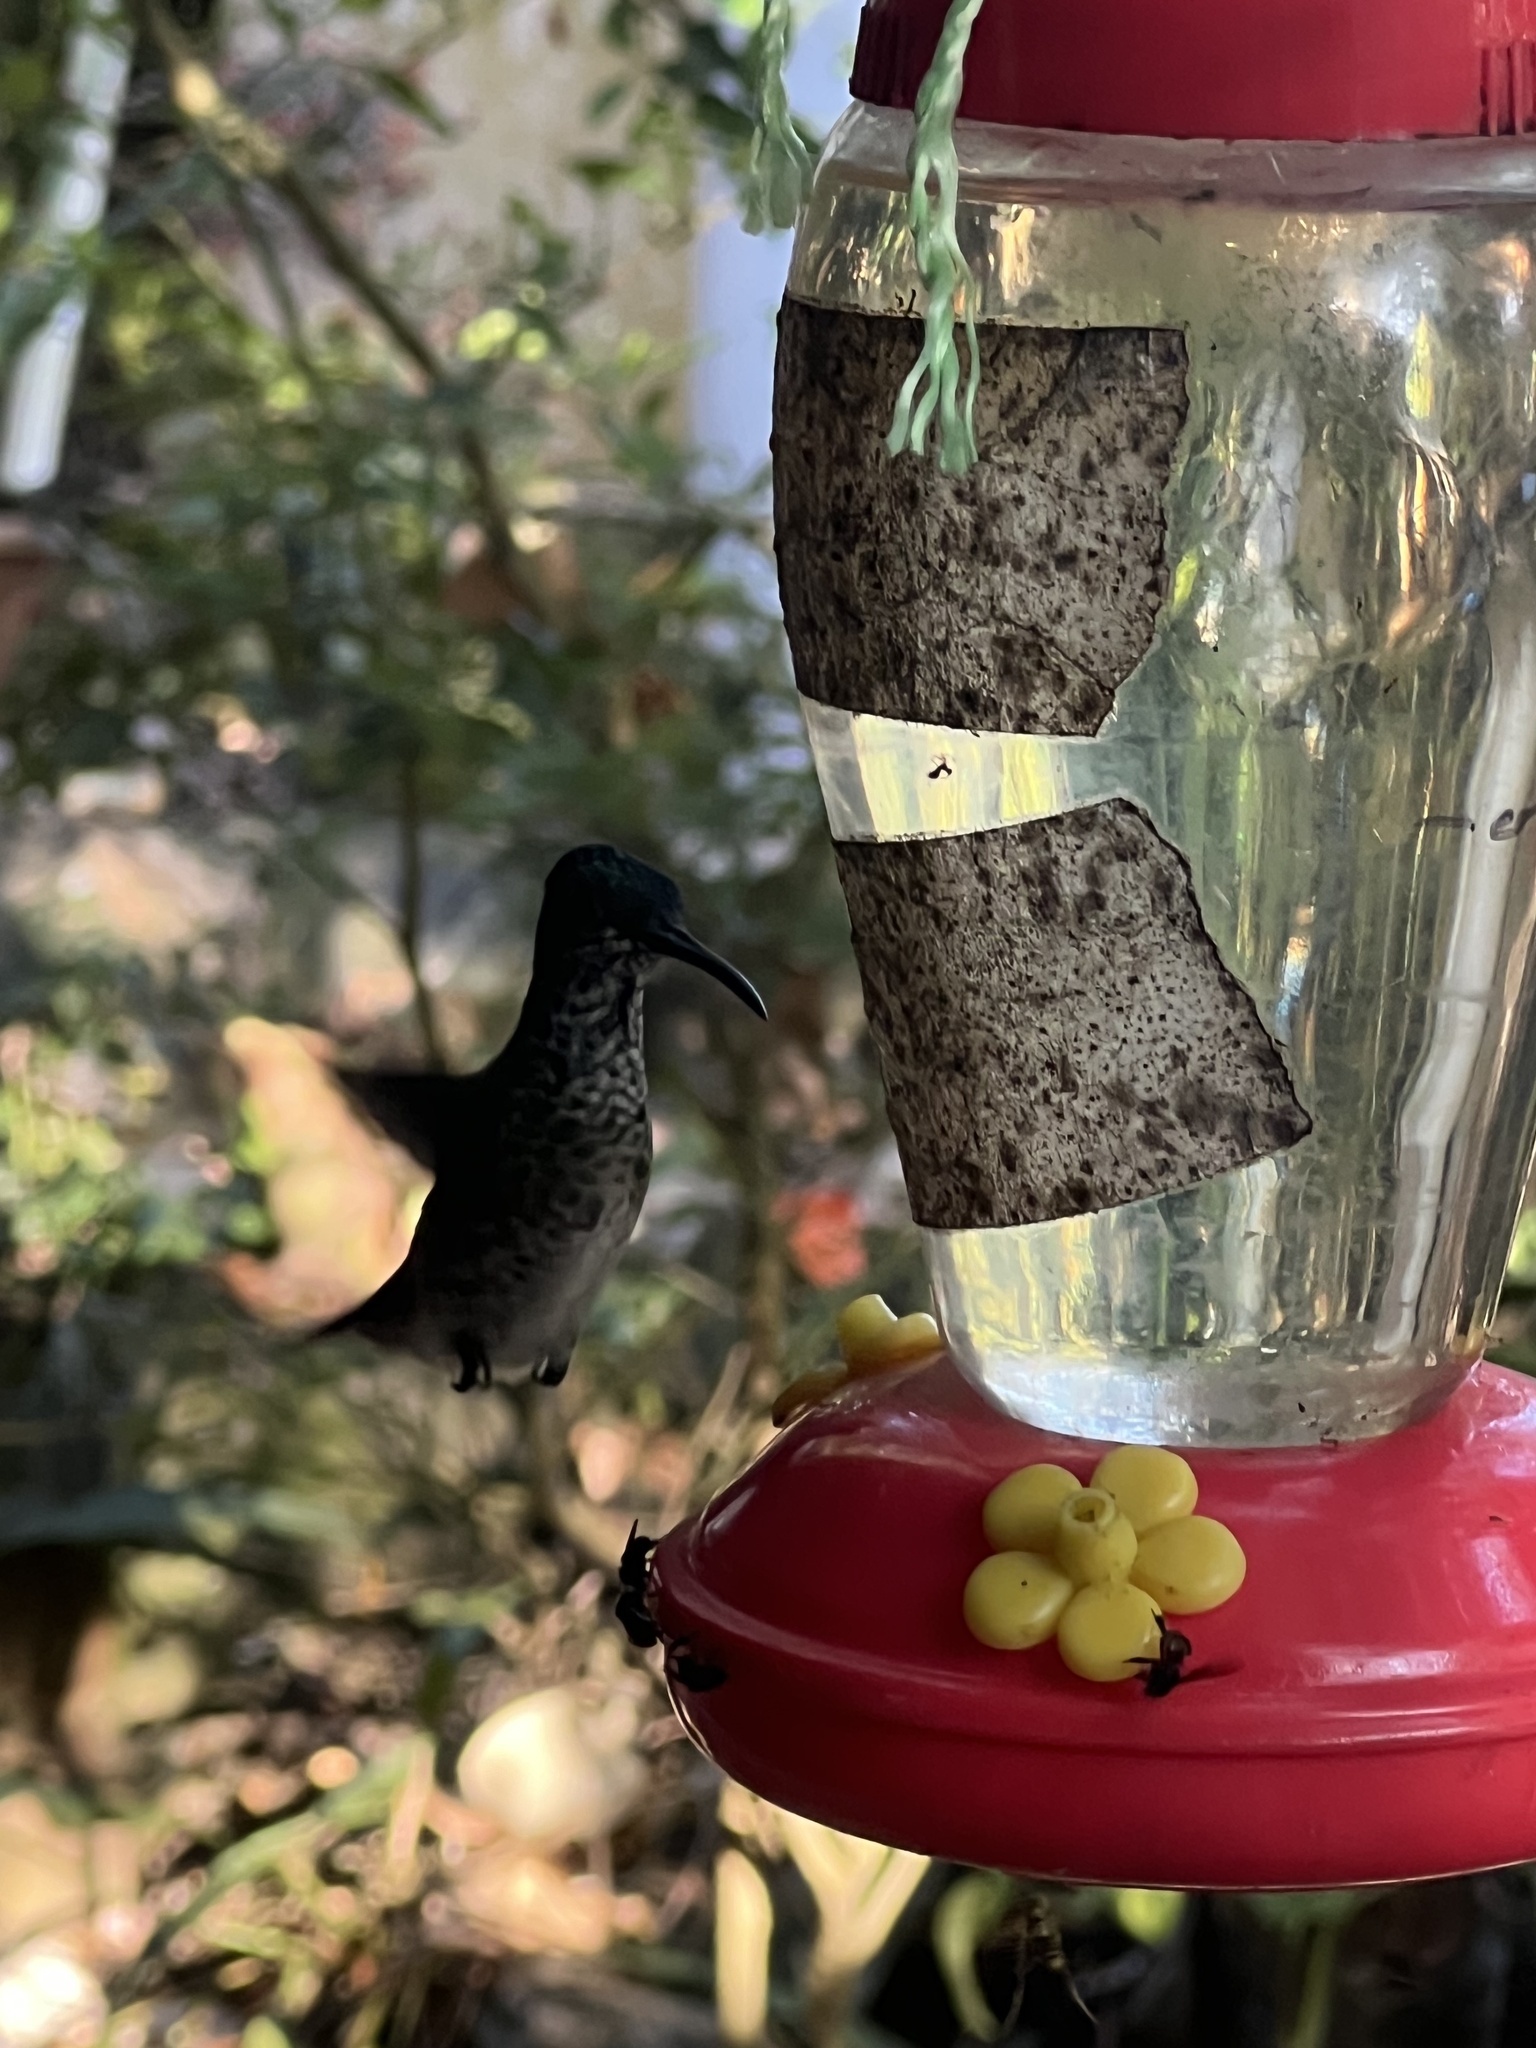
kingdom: Animalia
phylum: Chordata
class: Aves
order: Apodiformes
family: Trochilidae
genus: Amazilia
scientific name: Amazilia tzacatl
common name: Rufous-tailed hummingbird
